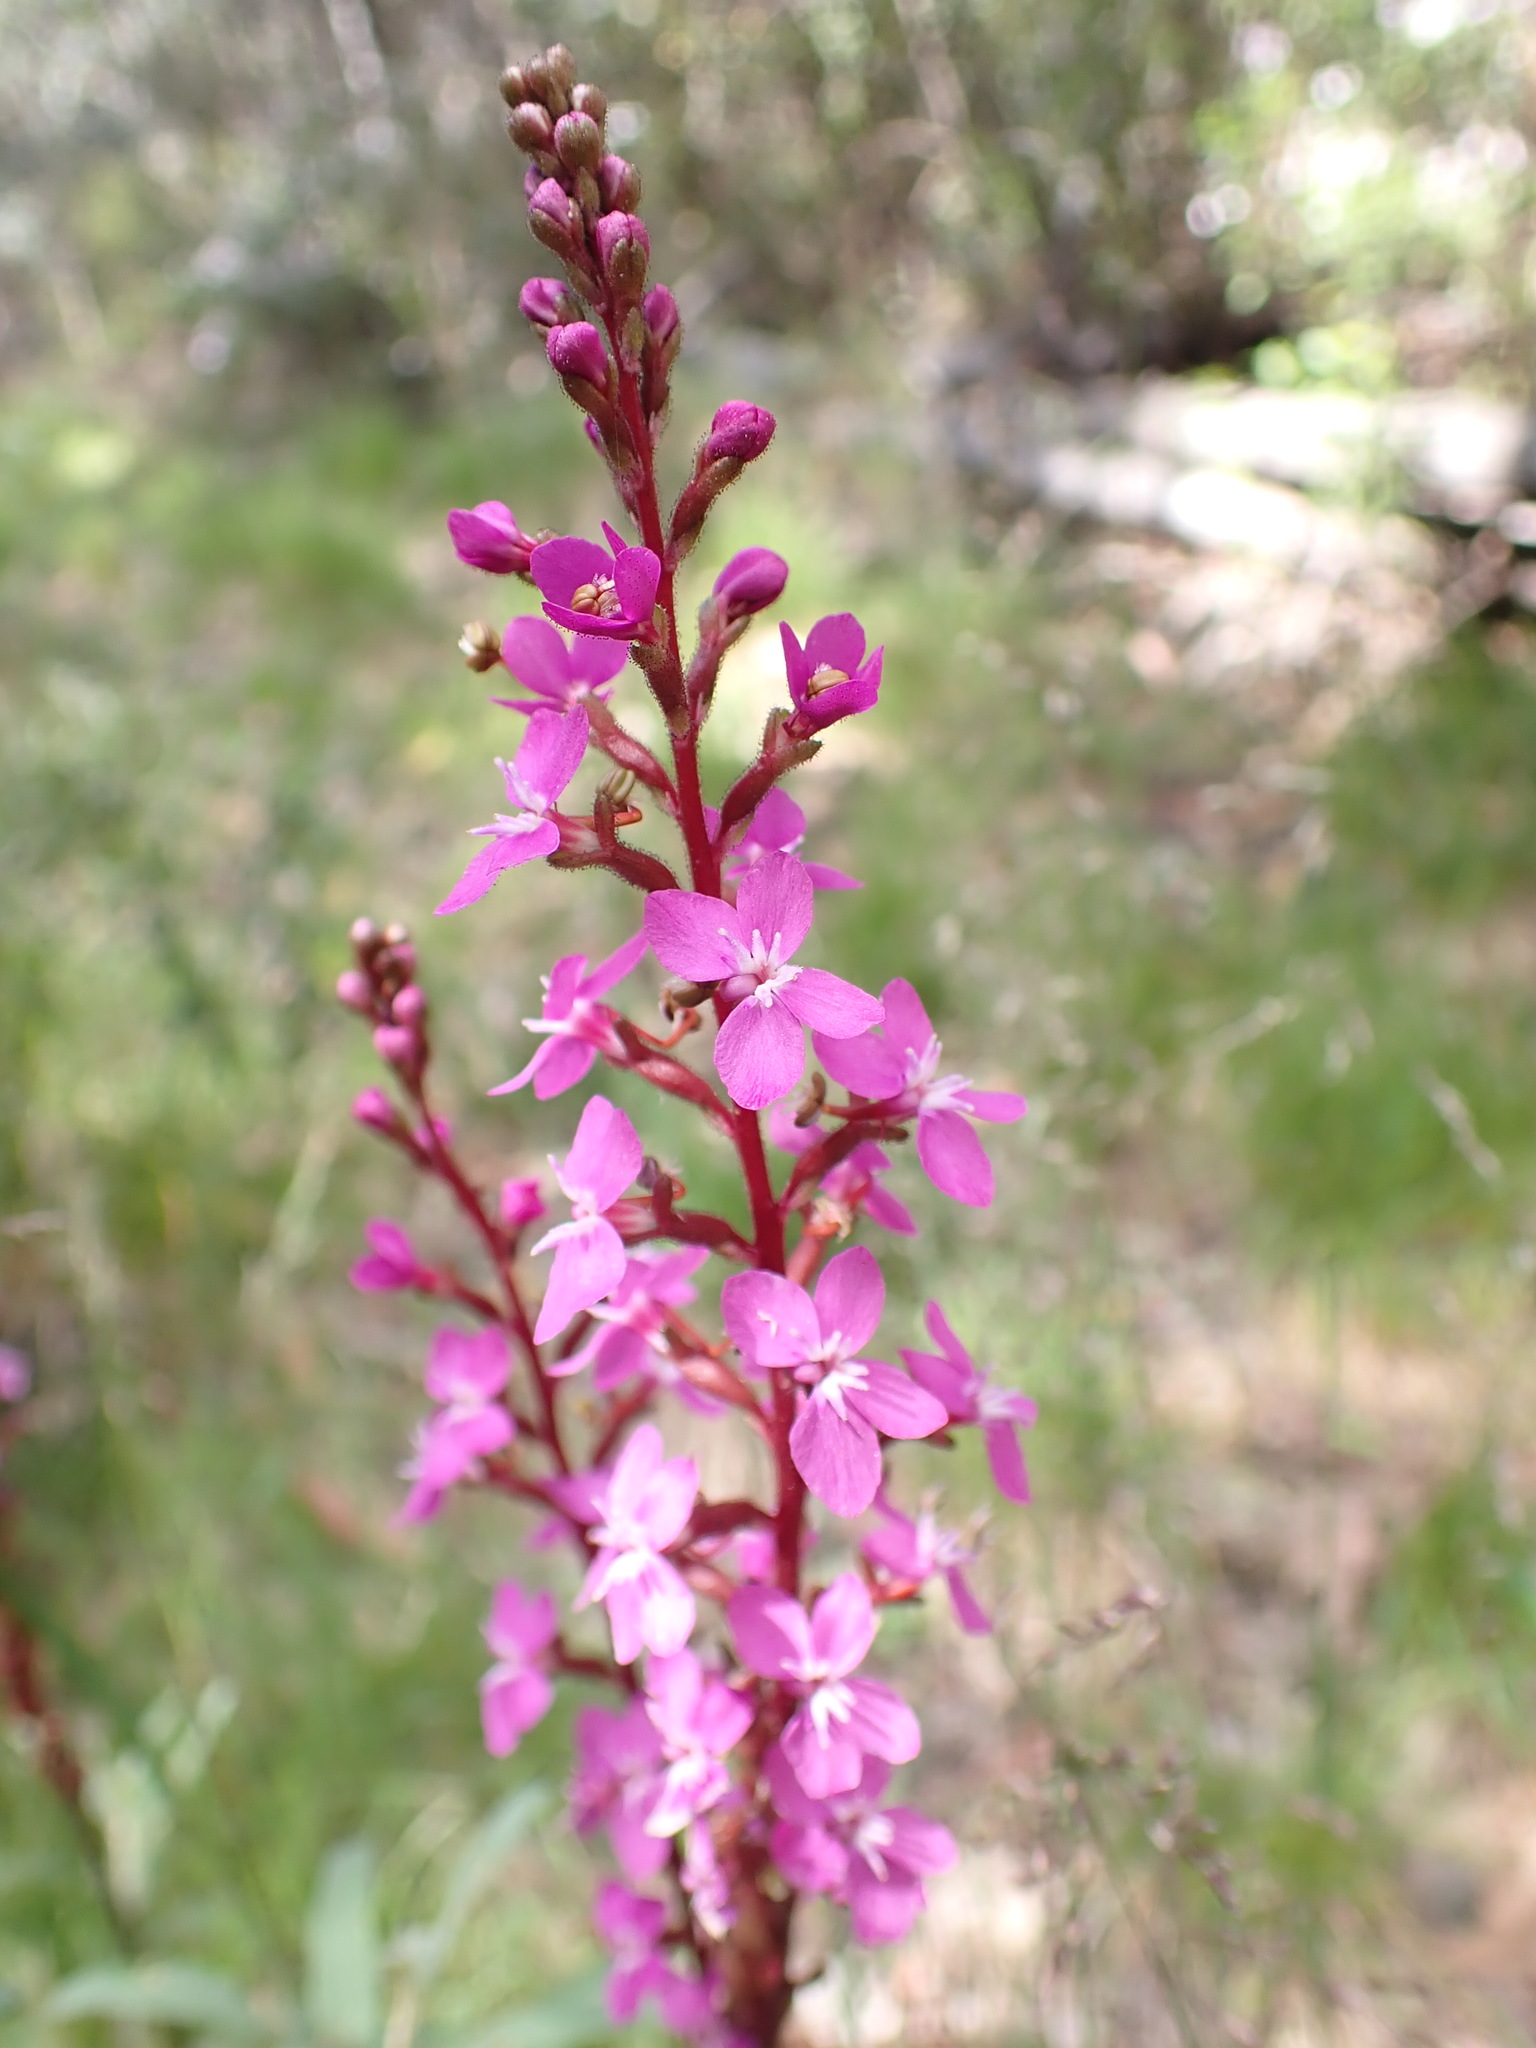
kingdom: Plantae
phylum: Tracheophyta
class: Magnoliopsida
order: Asterales
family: Stylidiaceae
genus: Stylidium
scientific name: Stylidium armeria
